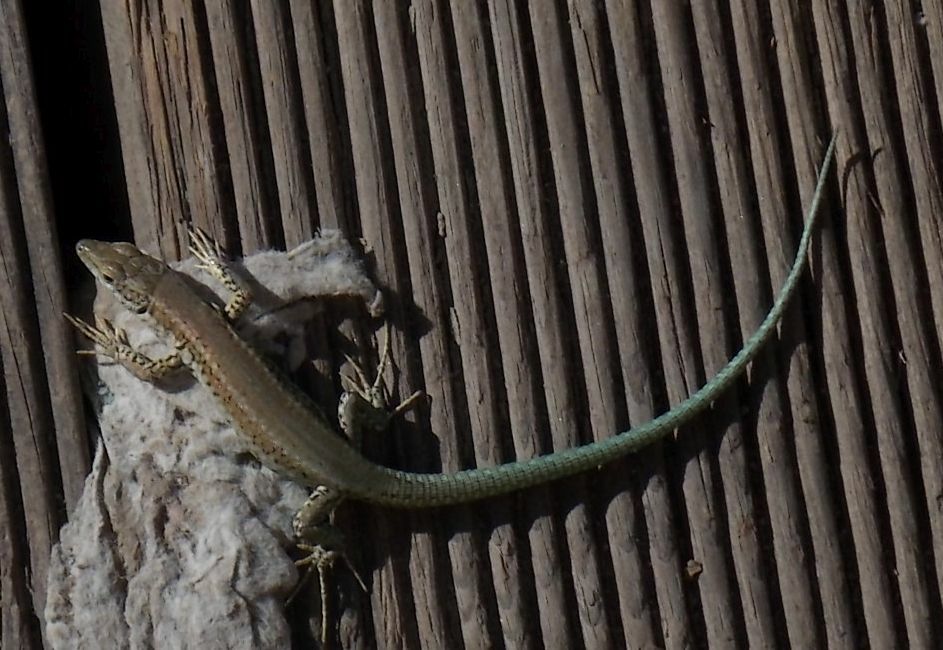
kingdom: Animalia
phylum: Chordata
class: Squamata
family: Lacertidae
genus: Podarcis
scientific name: Podarcis vaucheri
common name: Vaucher's wall lizard
